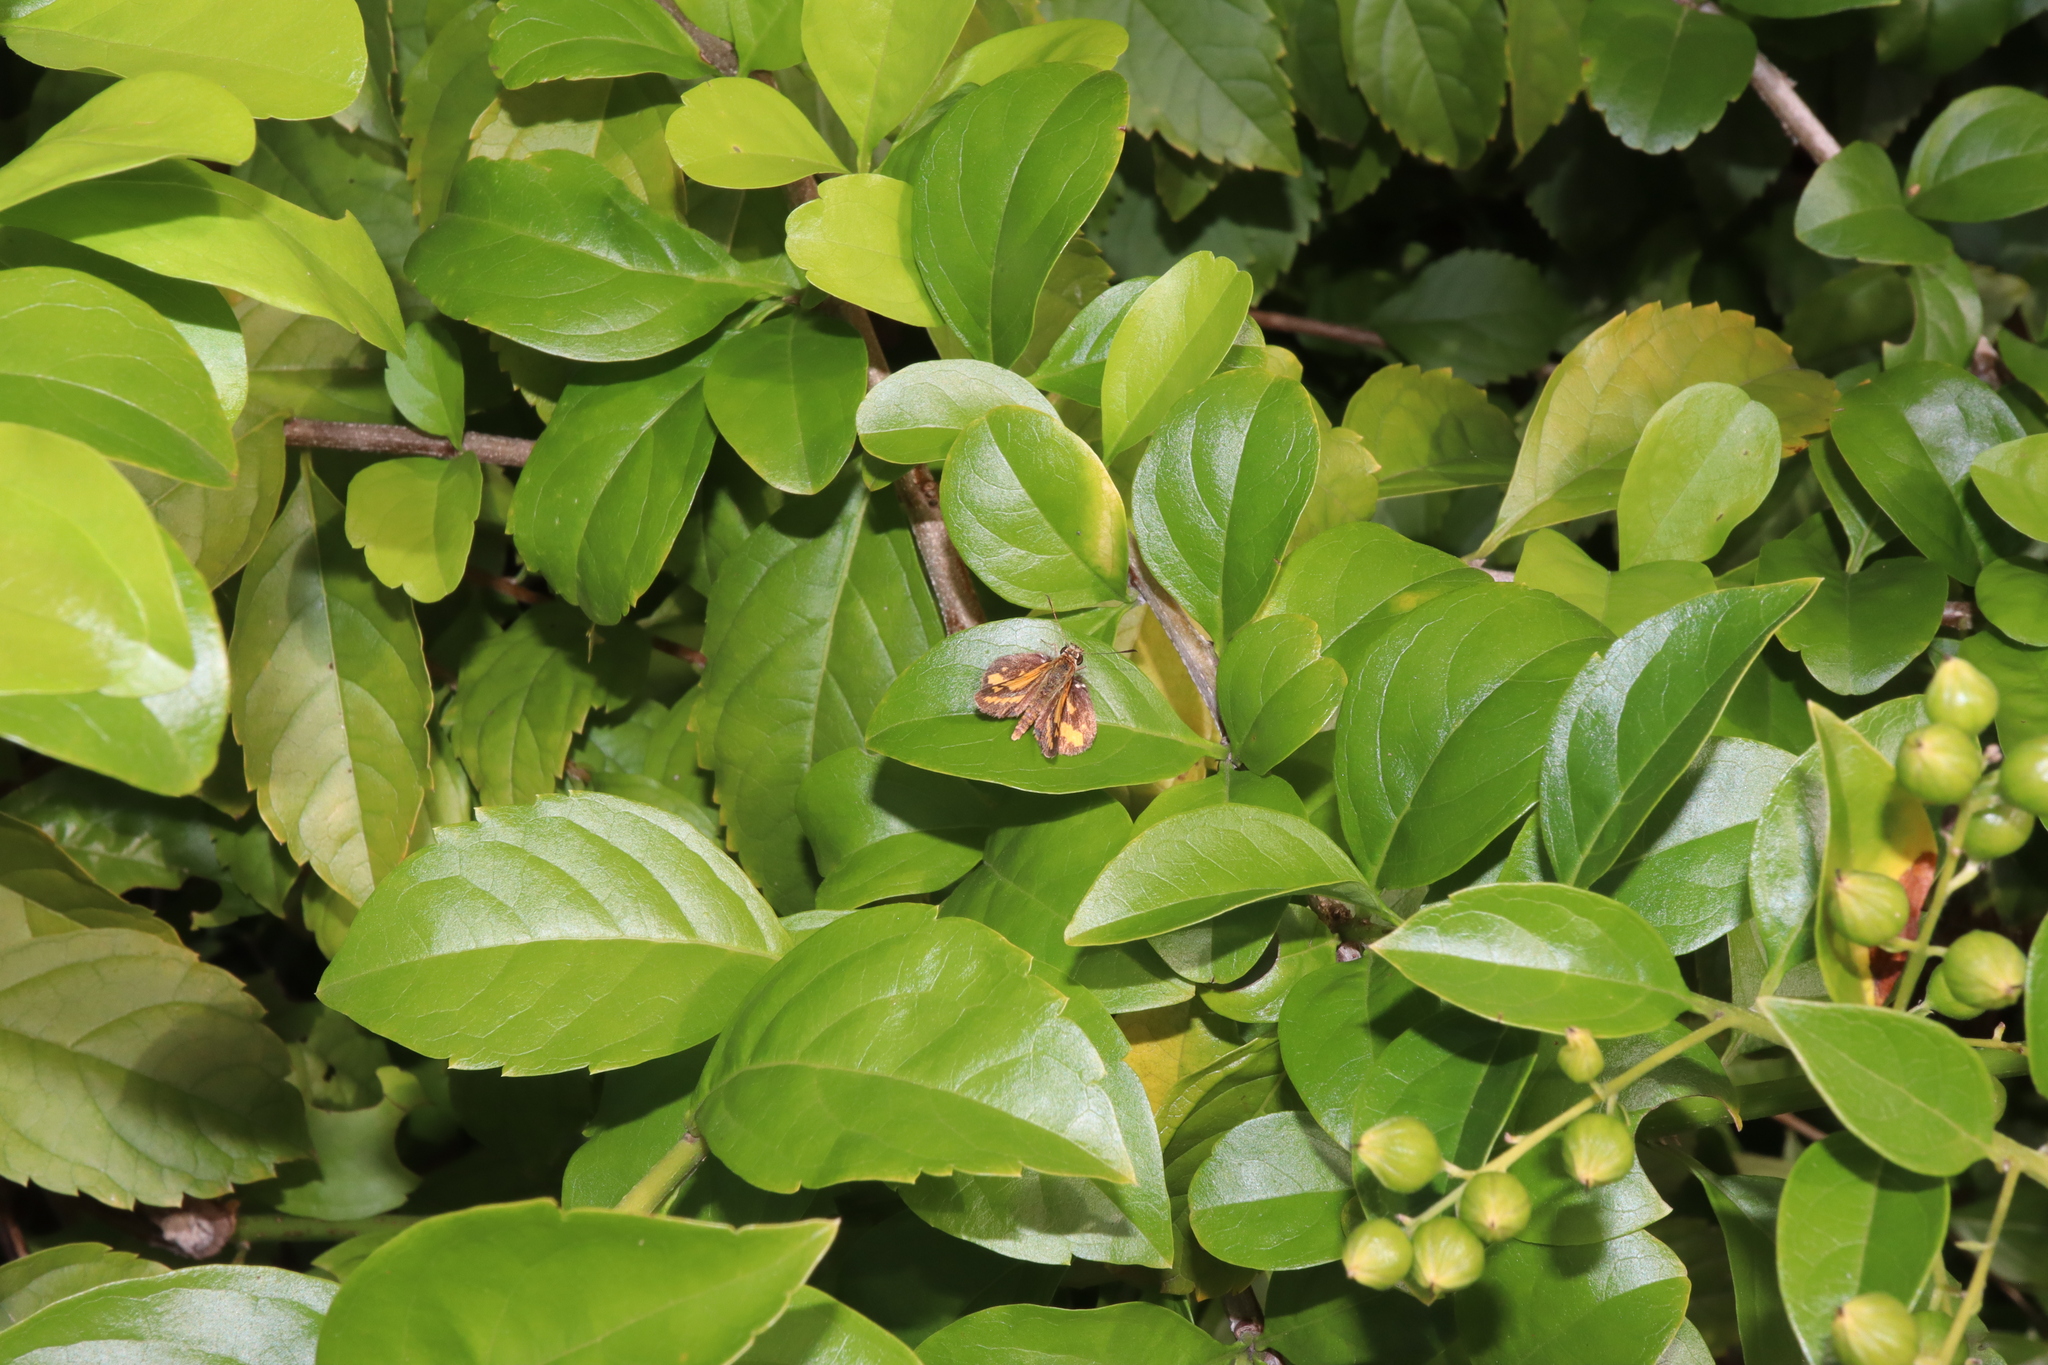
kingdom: Animalia
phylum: Arthropoda
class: Insecta
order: Lepidoptera
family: Hesperiidae
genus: Suniana
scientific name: Suniana sunias
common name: Wide-brand grass-dart
